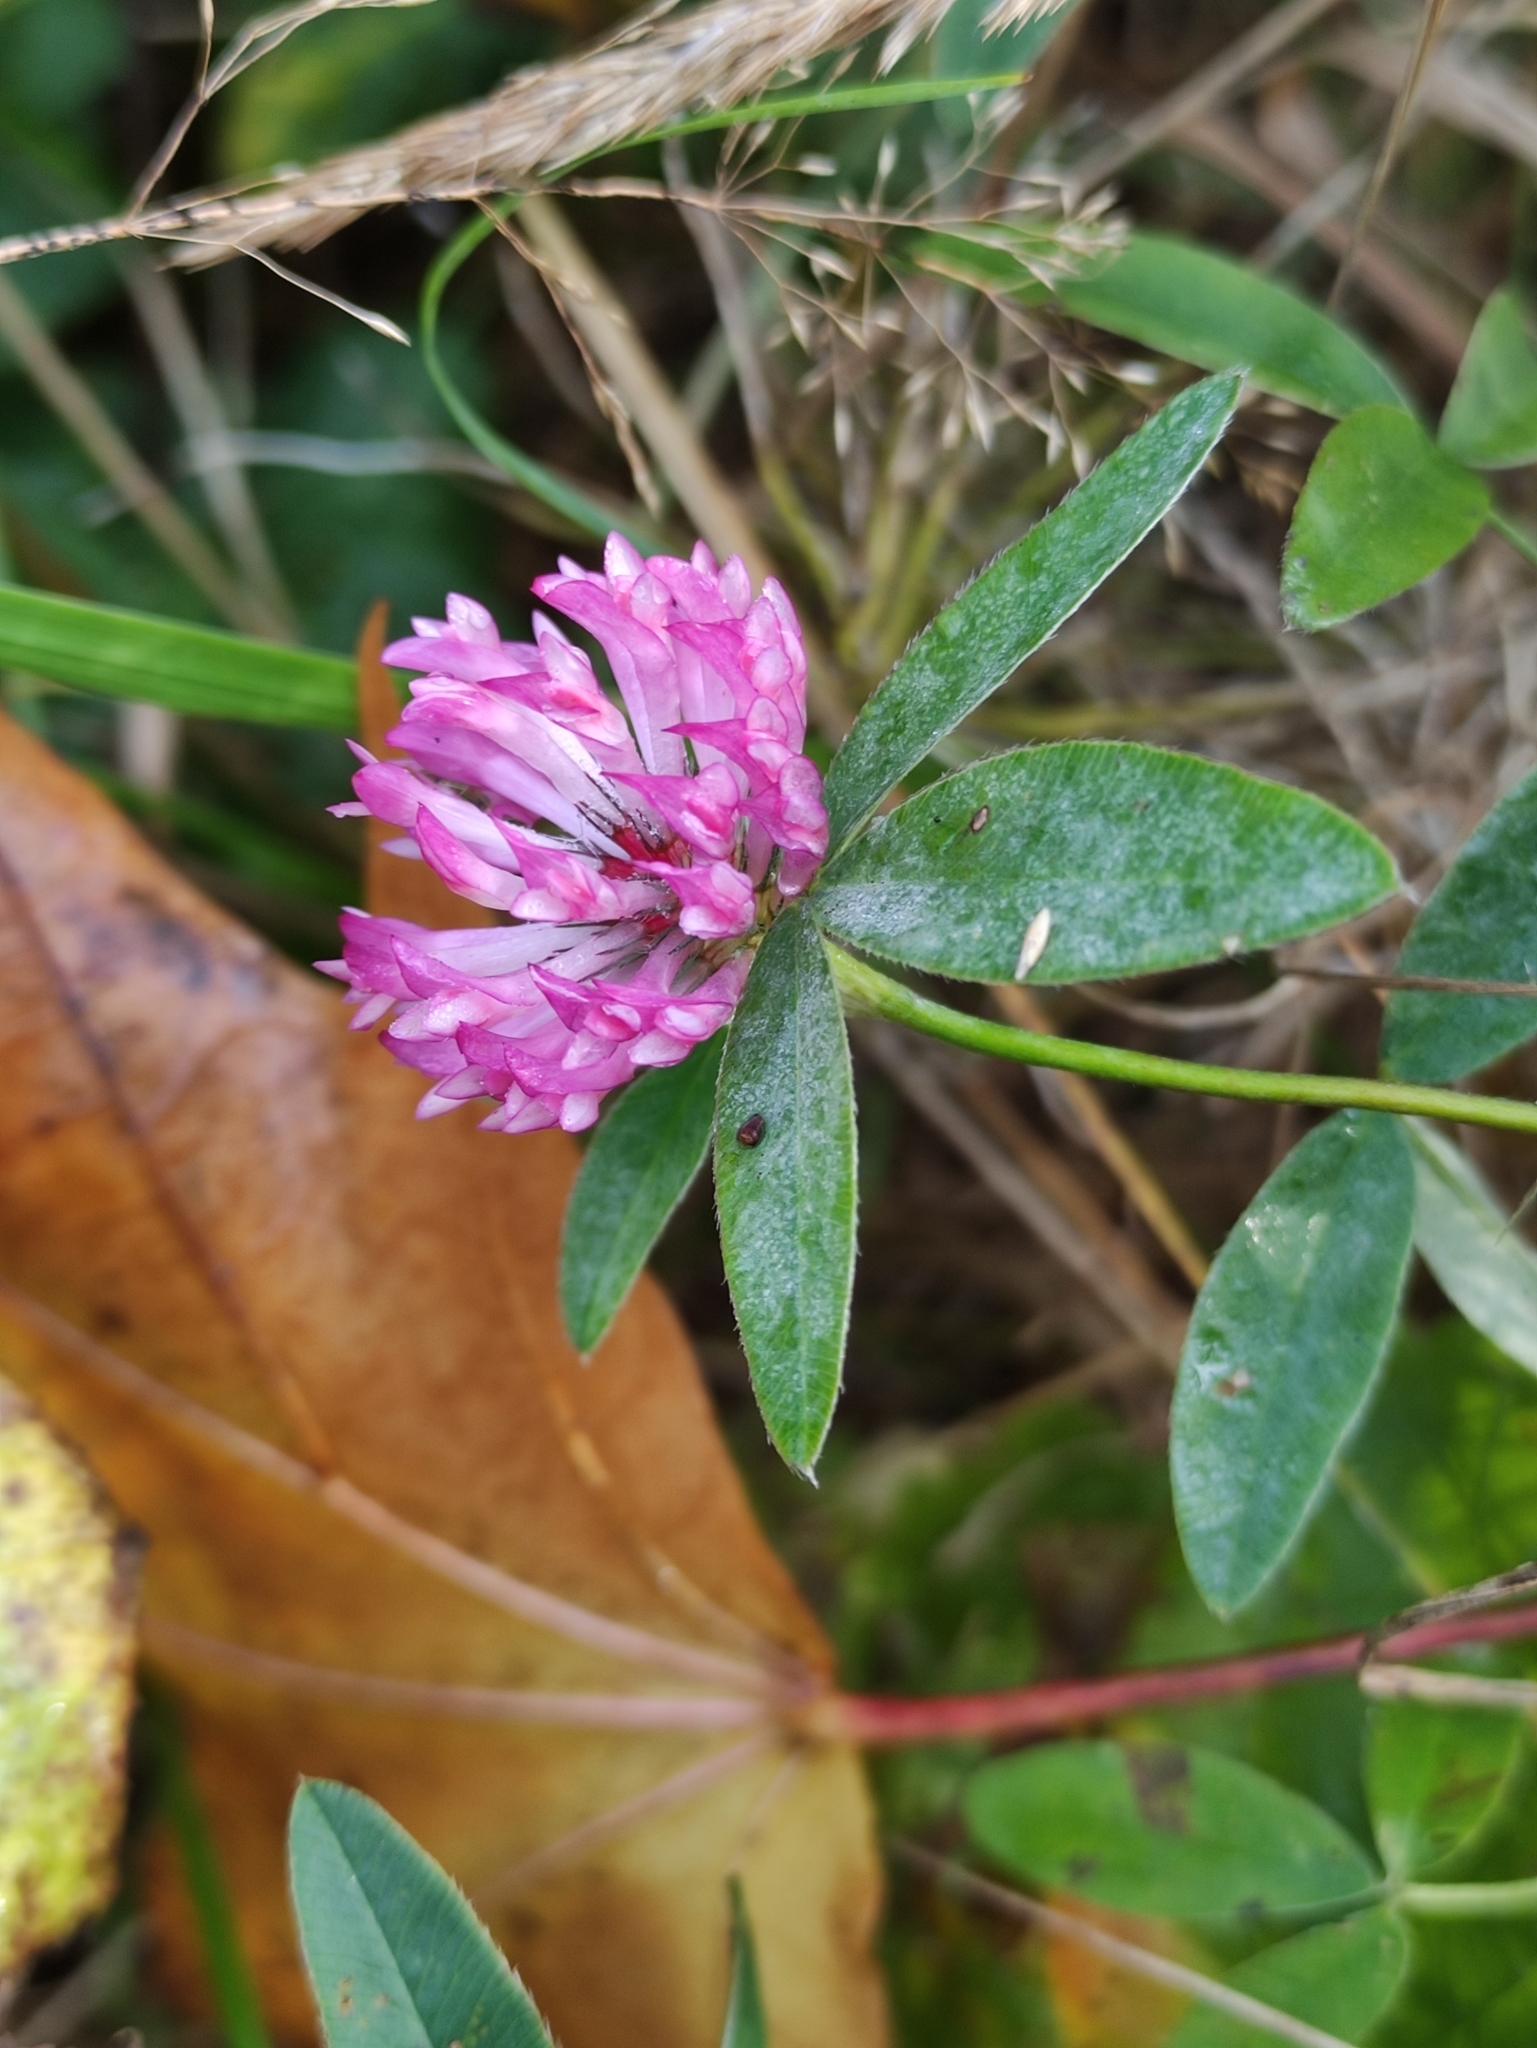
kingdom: Plantae
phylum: Tracheophyta
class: Magnoliopsida
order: Fabales
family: Fabaceae
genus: Trifolium
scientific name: Trifolium medium
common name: Zigzag clover
